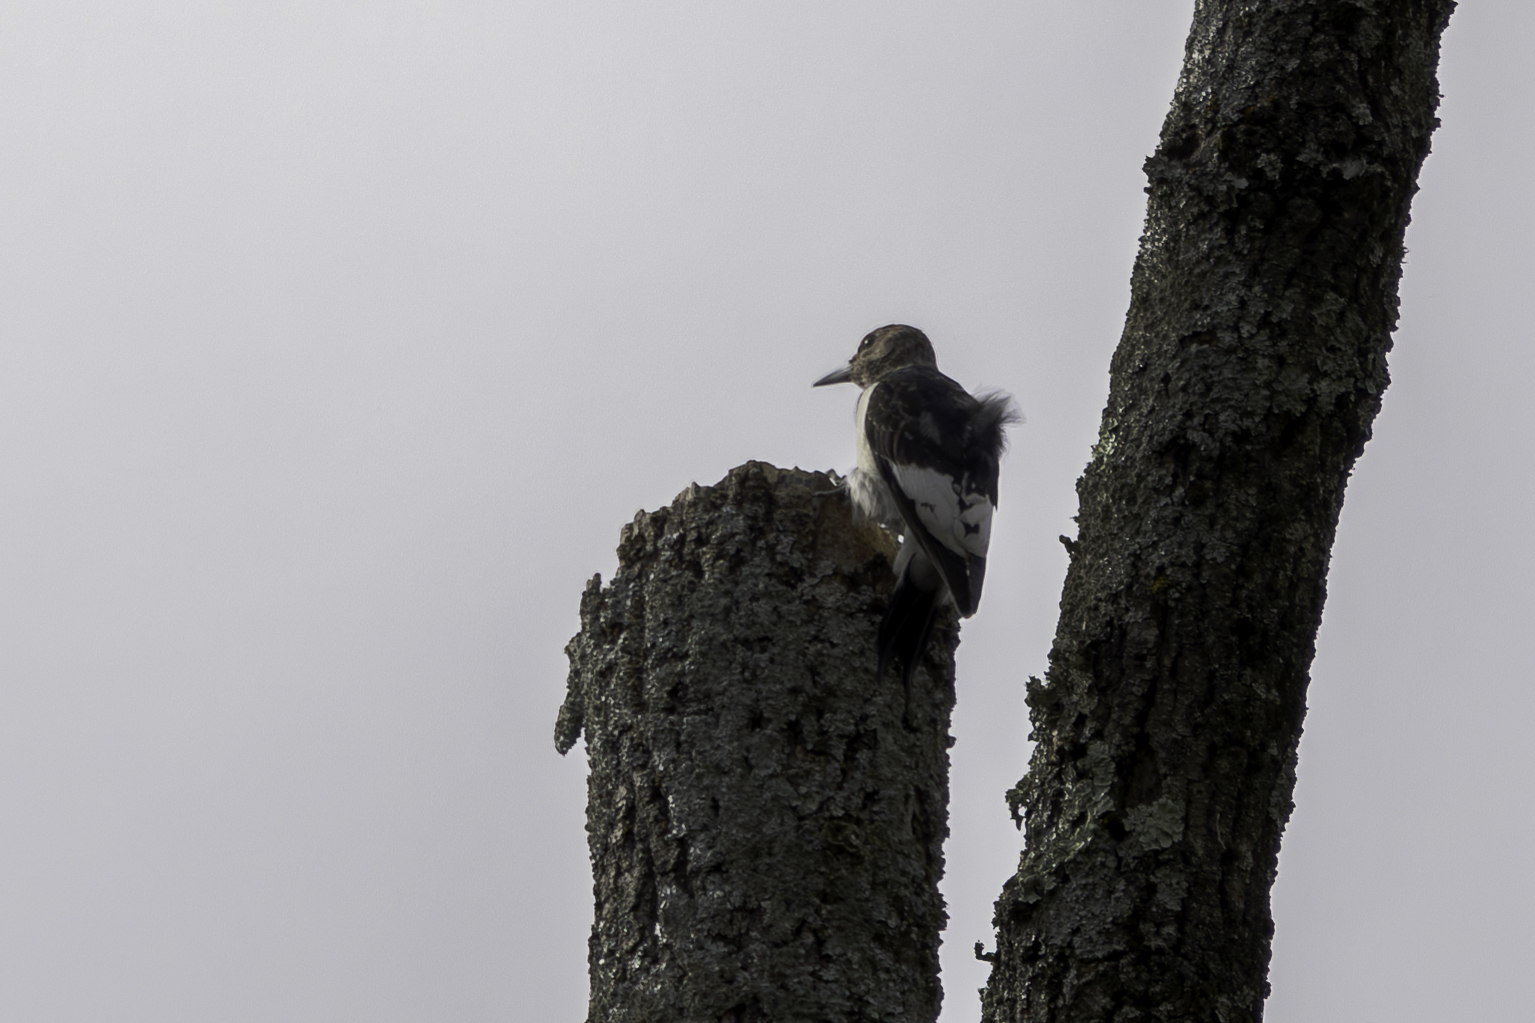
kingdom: Animalia
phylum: Chordata
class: Aves
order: Piciformes
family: Picidae
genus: Melanerpes
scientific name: Melanerpes erythrocephalus
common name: Red-headed woodpecker
